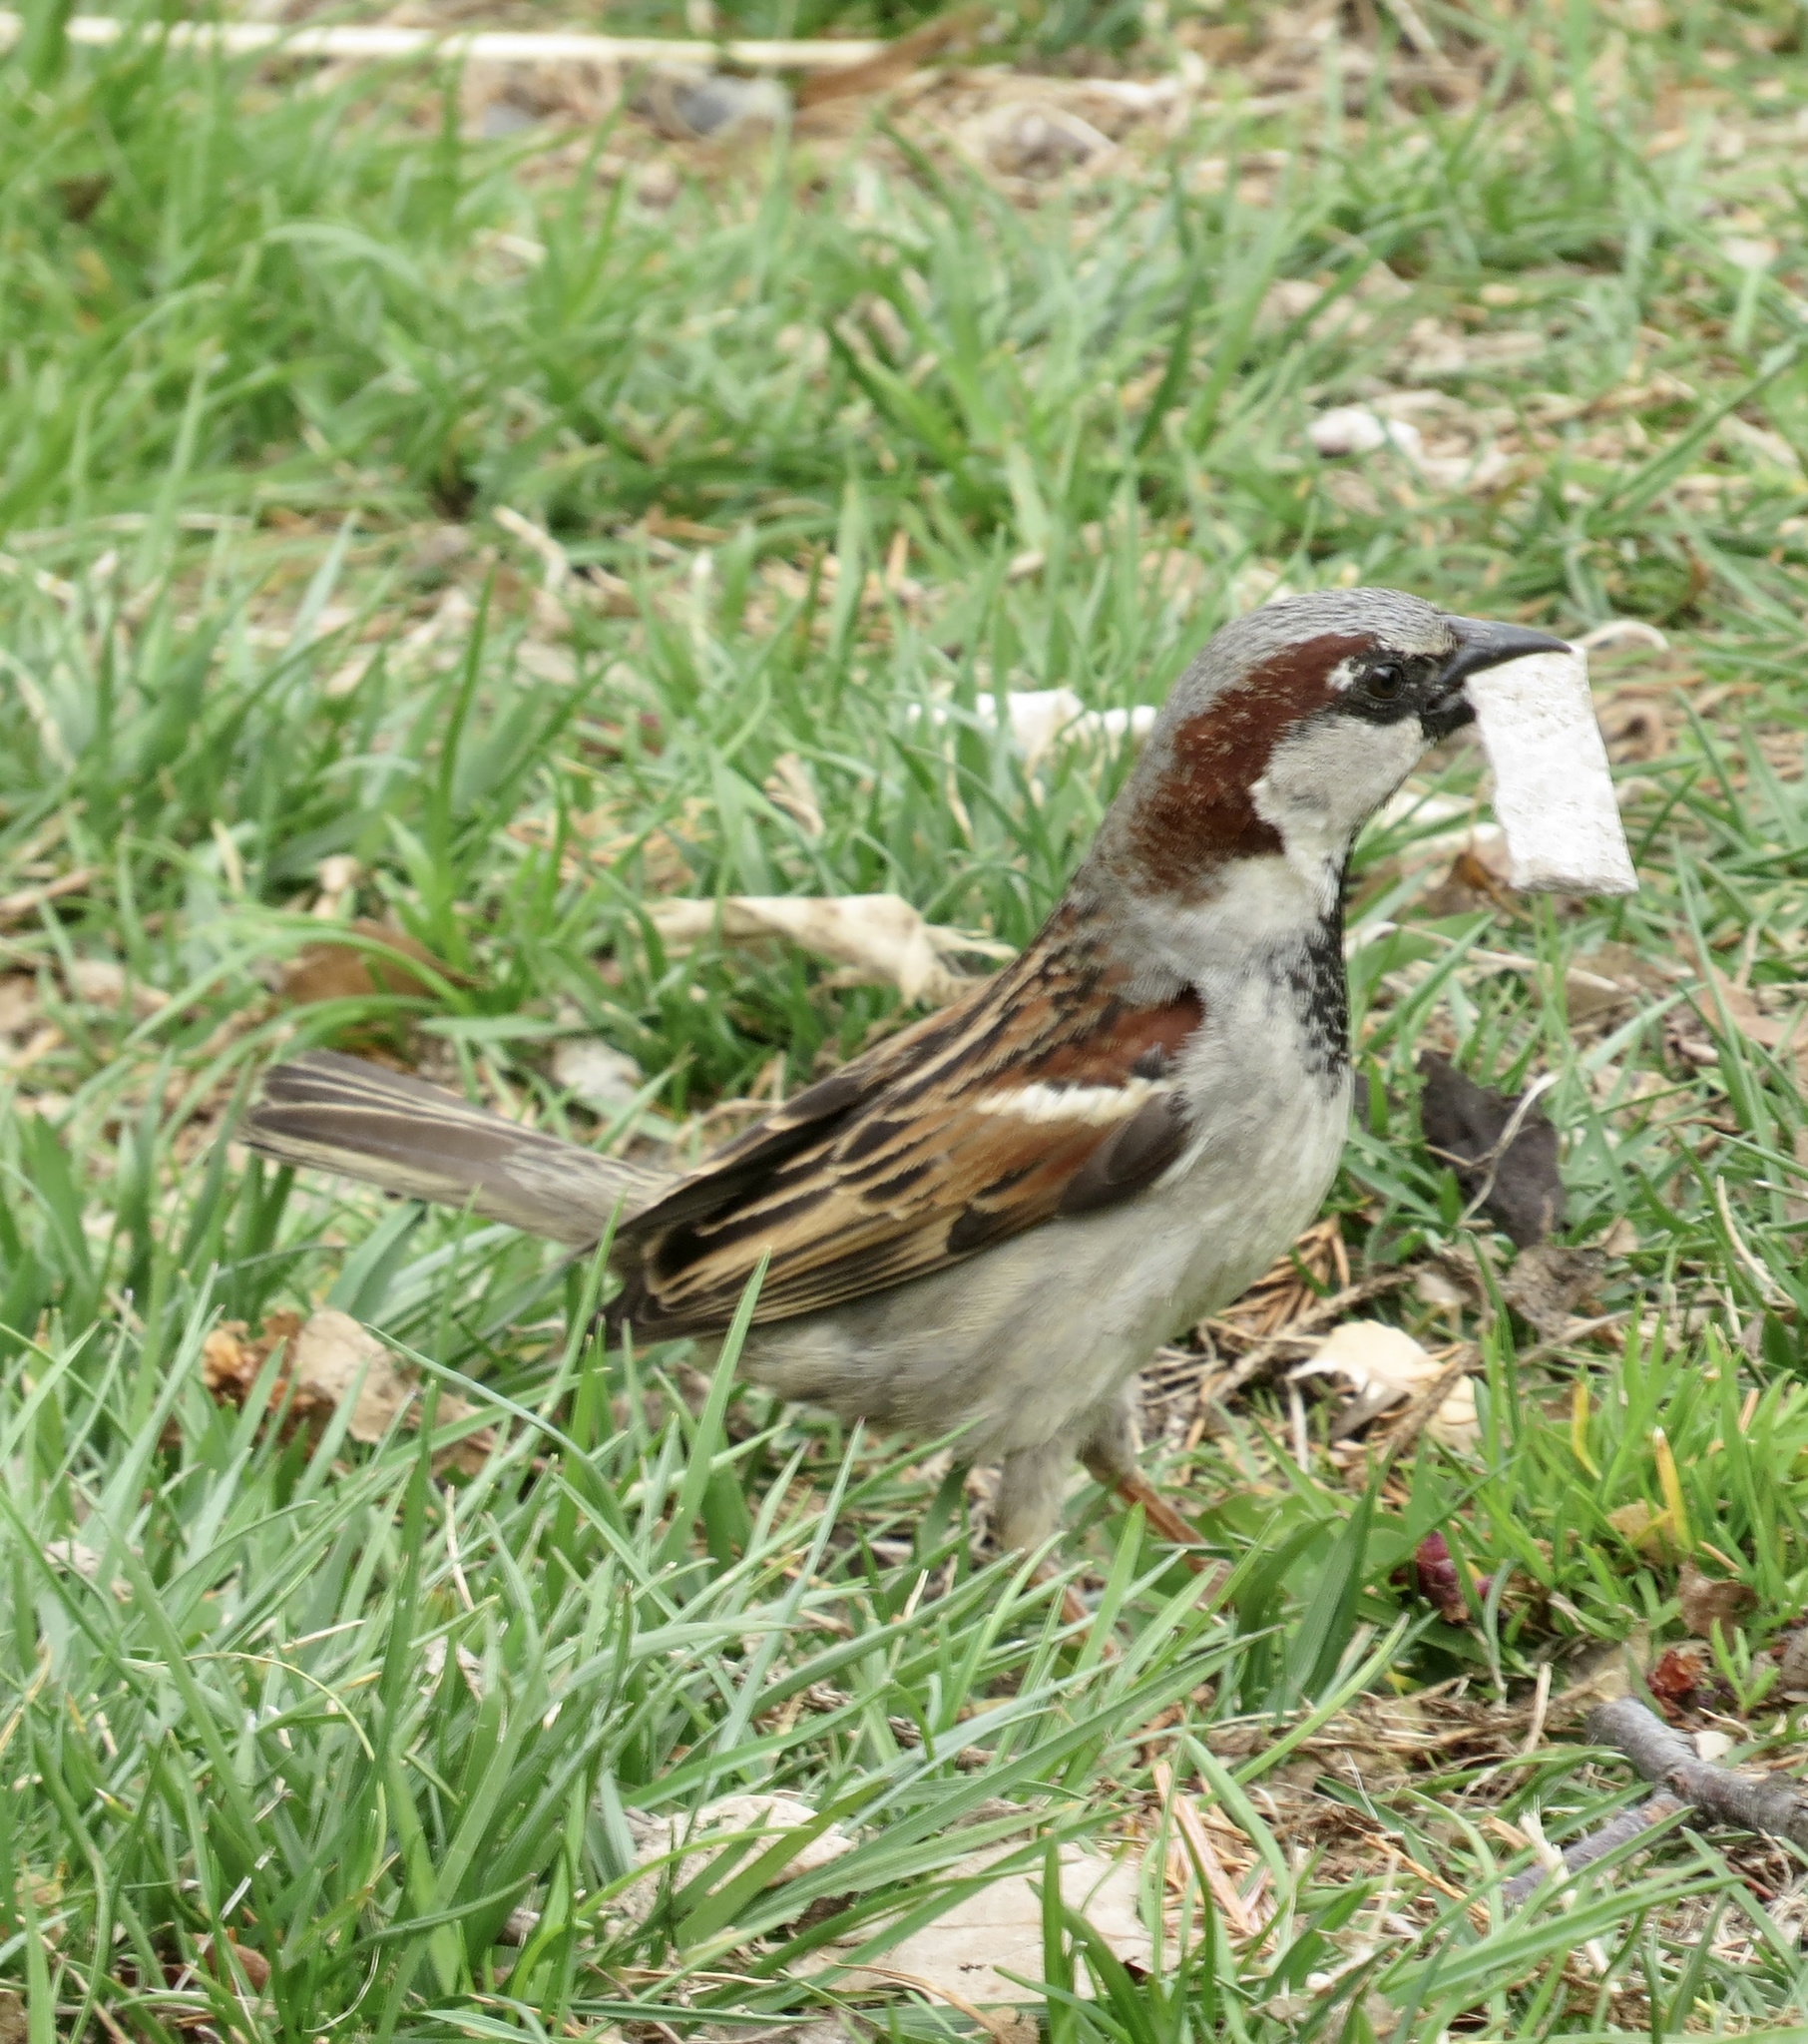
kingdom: Animalia
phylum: Chordata
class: Aves
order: Passeriformes
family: Passeridae
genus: Passer
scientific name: Passer domesticus
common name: House sparrow
